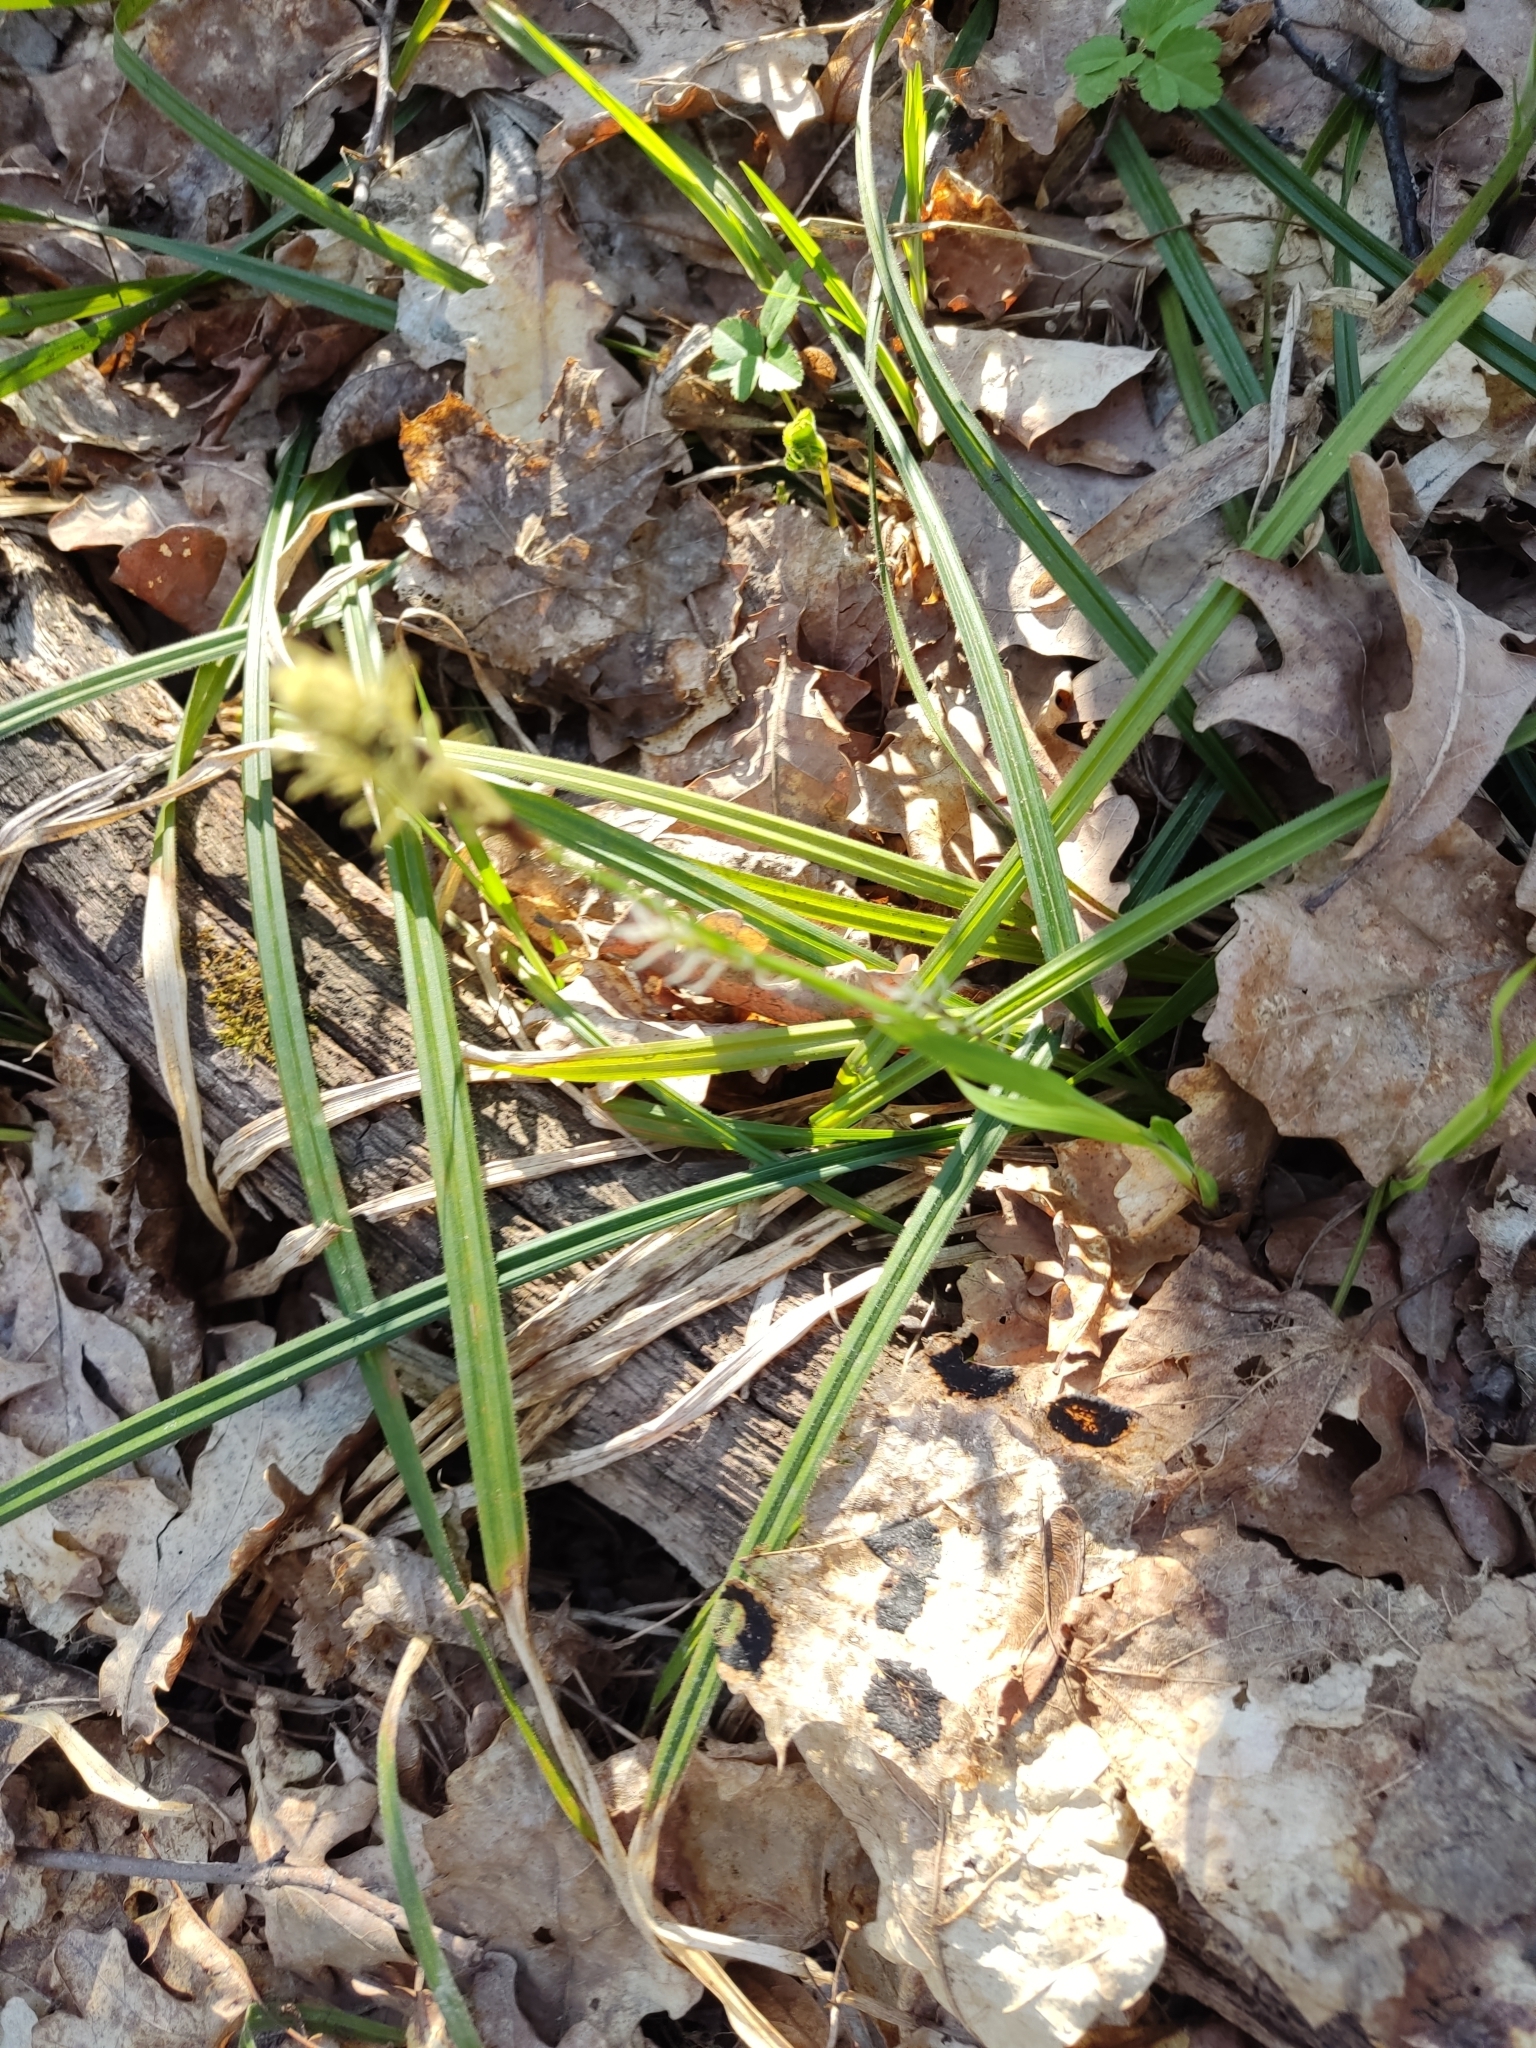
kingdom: Plantae
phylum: Tracheophyta
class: Liliopsida
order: Poales
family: Cyperaceae
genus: Carex
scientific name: Carex pilosa
